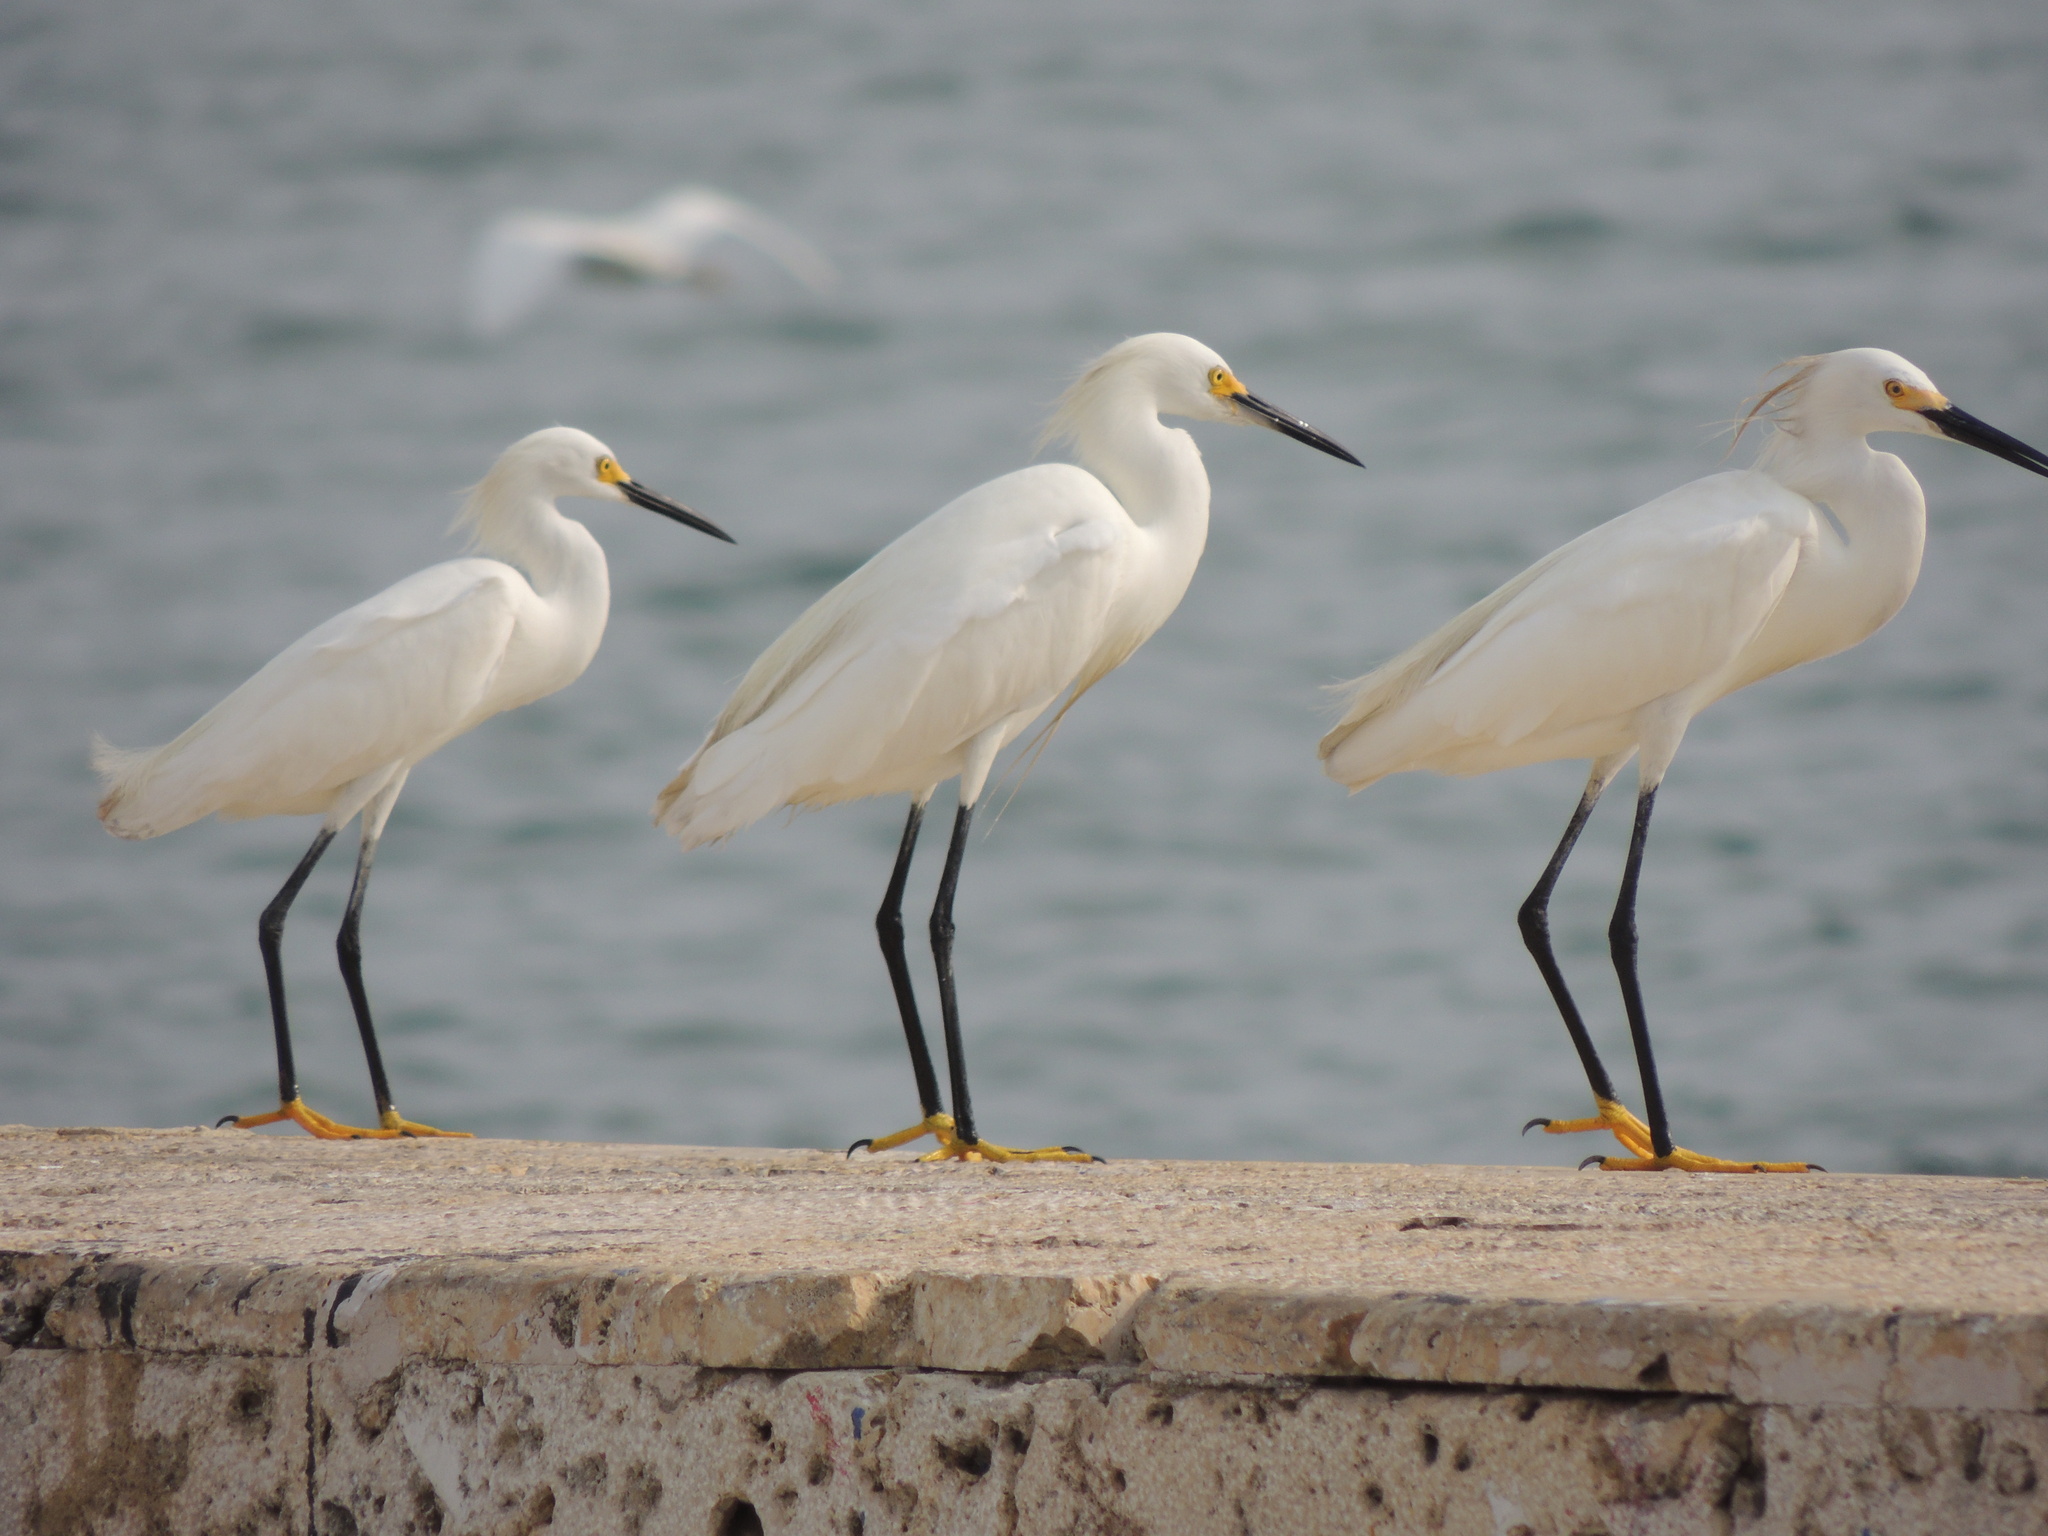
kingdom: Animalia
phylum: Chordata
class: Aves
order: Pelecaniformes
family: Ardeidae
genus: Egretta
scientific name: Egretta thula
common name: Snowy egret
